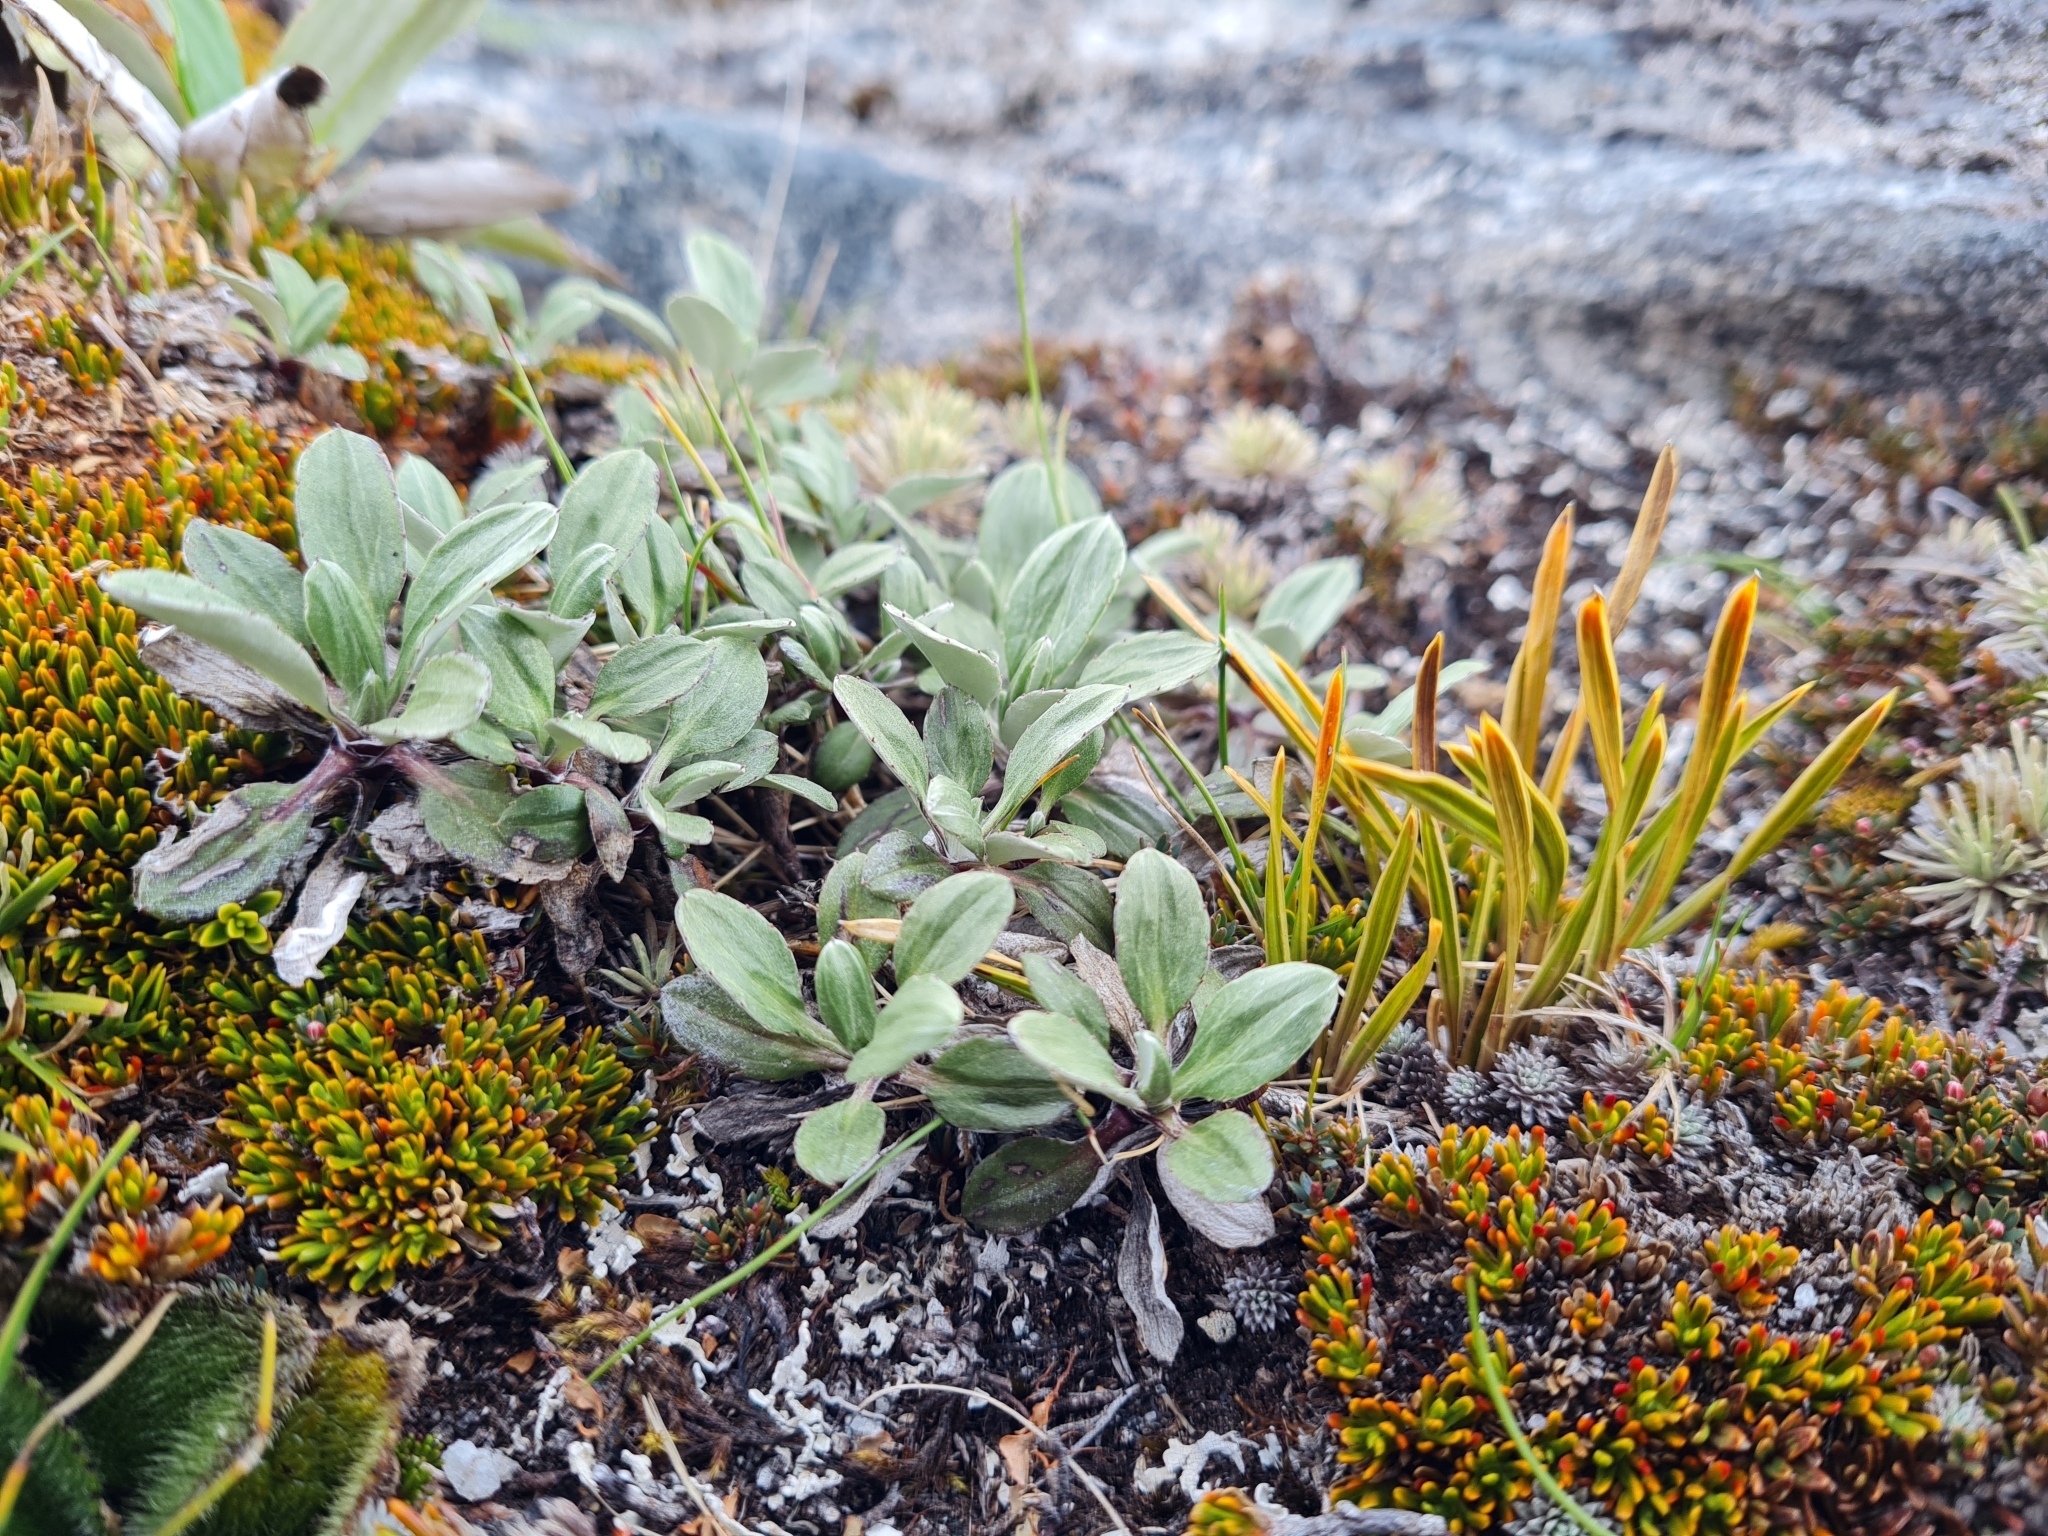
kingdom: Plantae
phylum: Tracheophyta
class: Magnoliopsida
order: Asterales
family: Asteraceae
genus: Celmisia
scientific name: Celmisia durietzii
